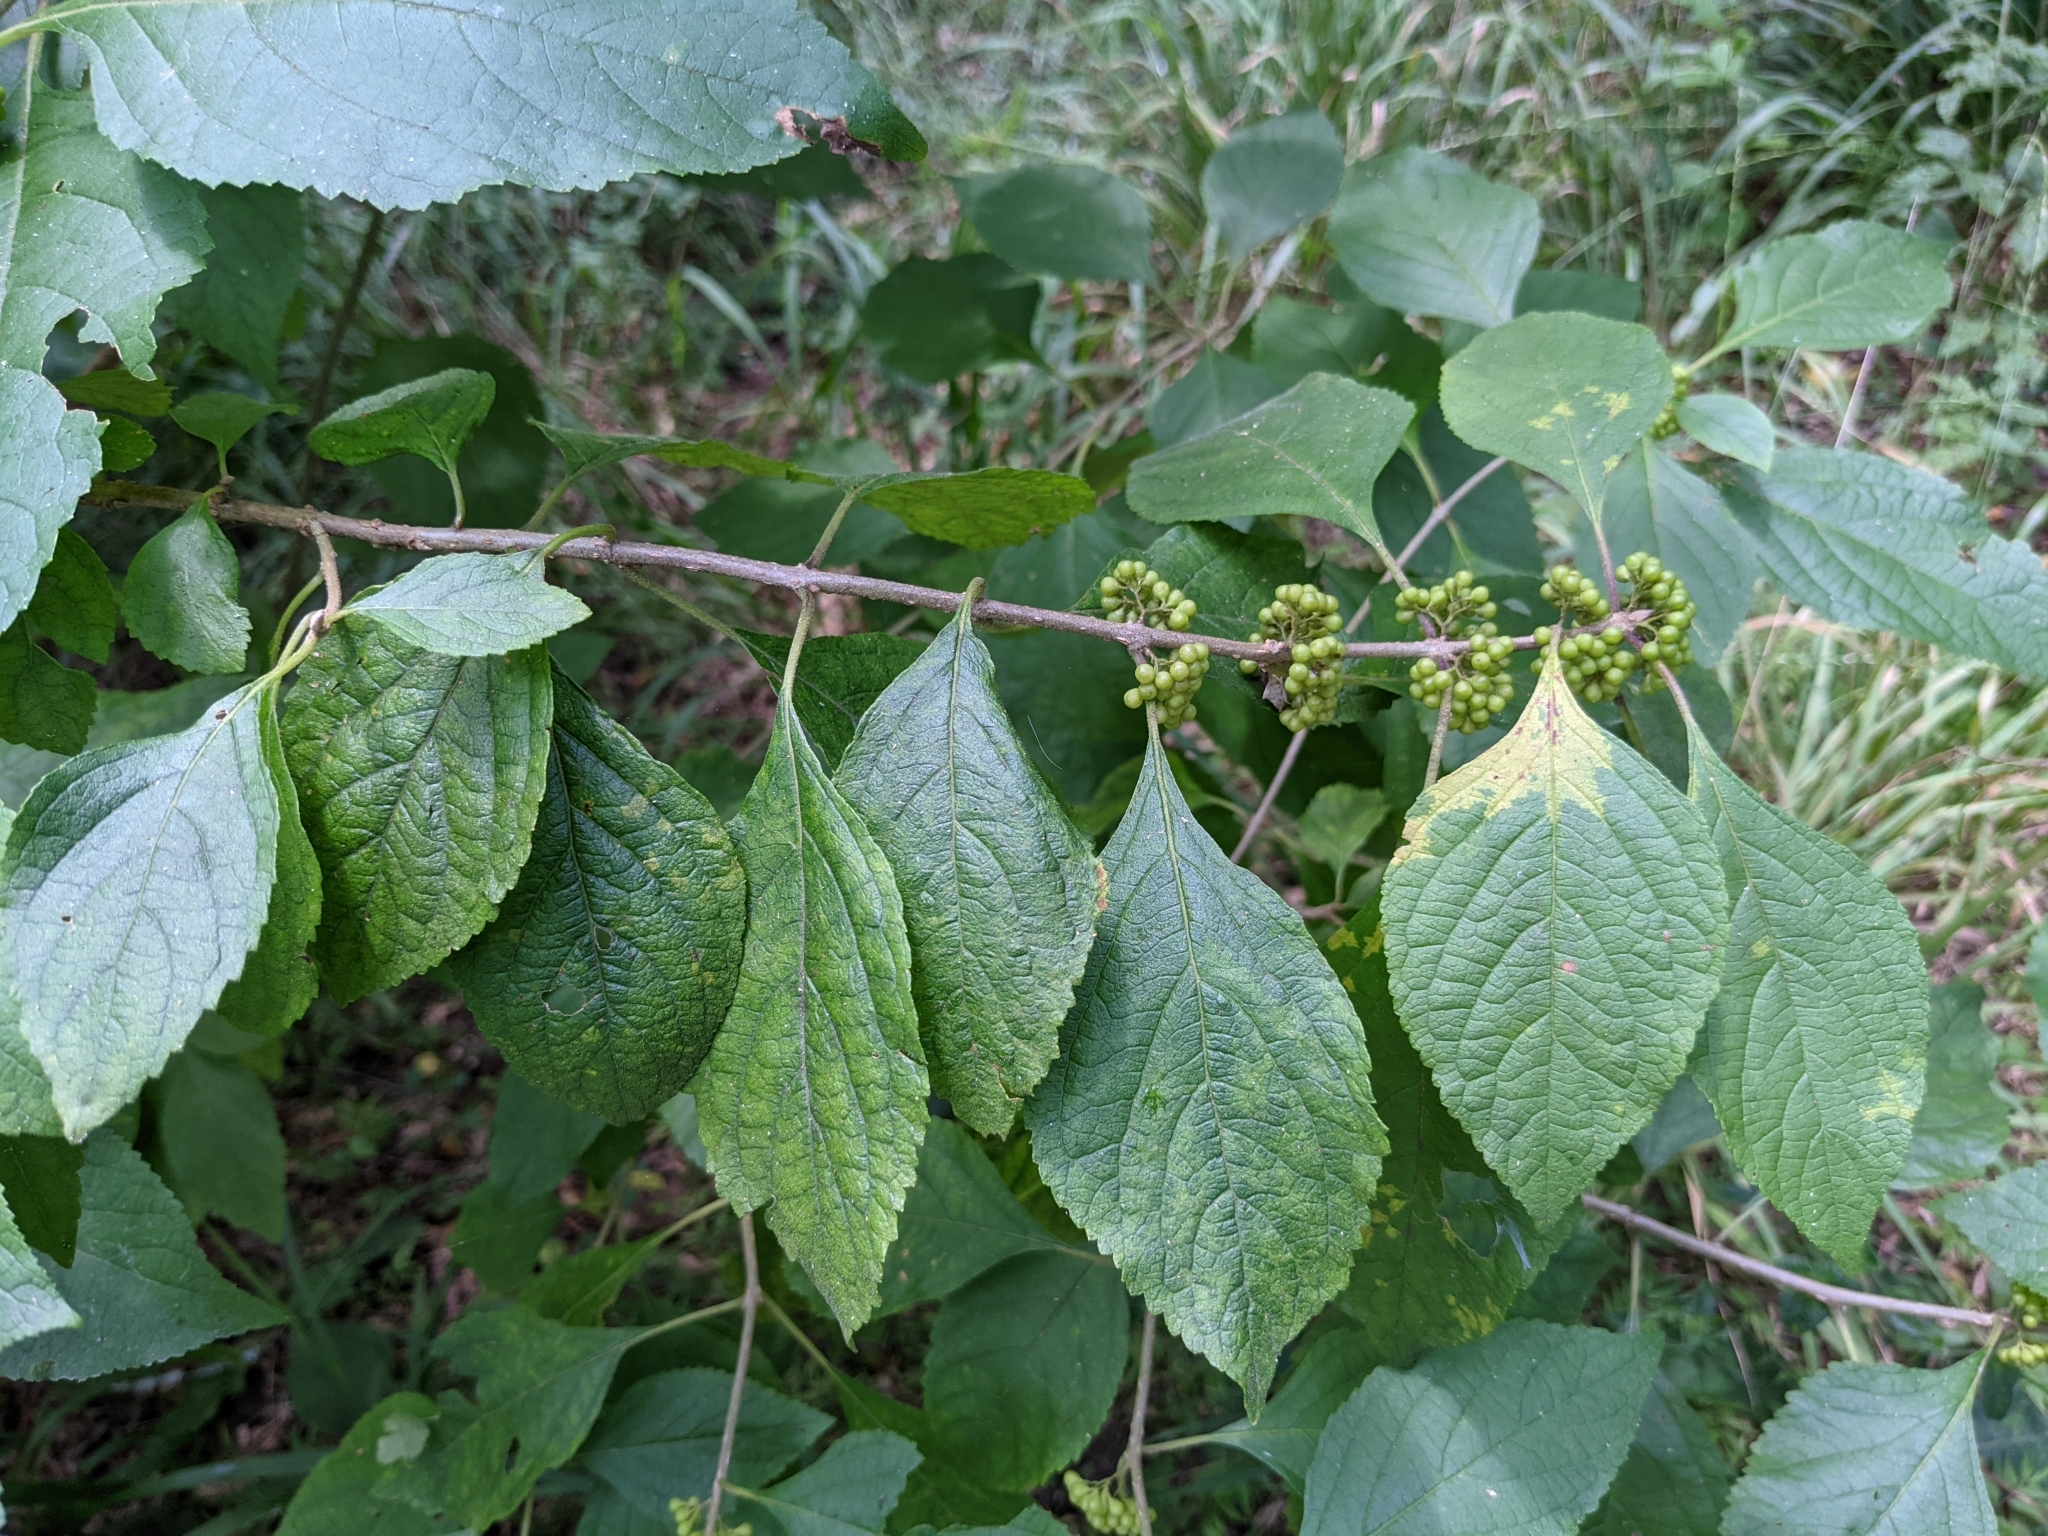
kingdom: Plantae
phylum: Tracheophyta
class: Magnoliopsida
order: Lamiales
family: Lamiaceae
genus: Callicarpa
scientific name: Callicarpa americana
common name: American beautyberry
